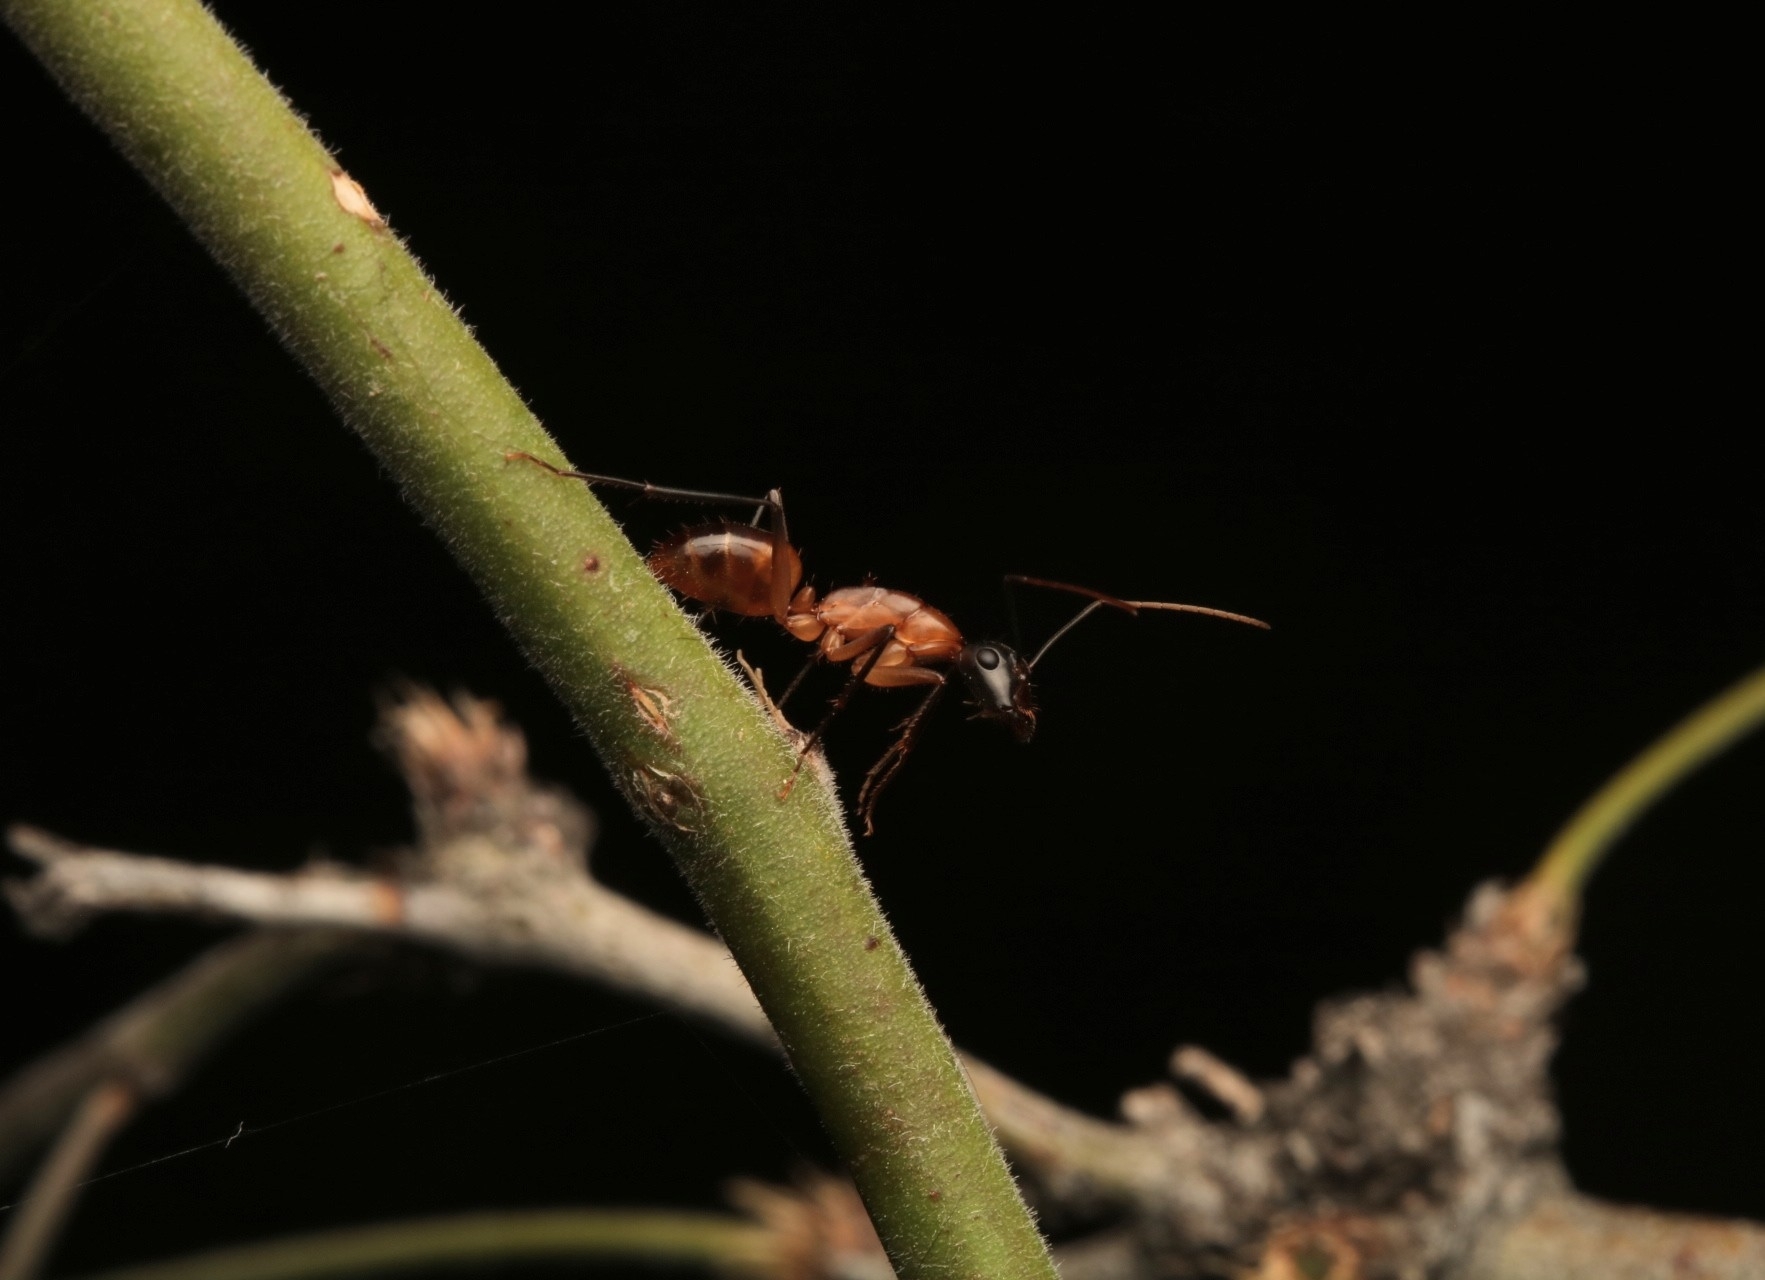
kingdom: Animalia
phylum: Arthropoda
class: Insecta
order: Hymenoptera
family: Formicidae
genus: Camponotus
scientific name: Camponotus ocreatus
